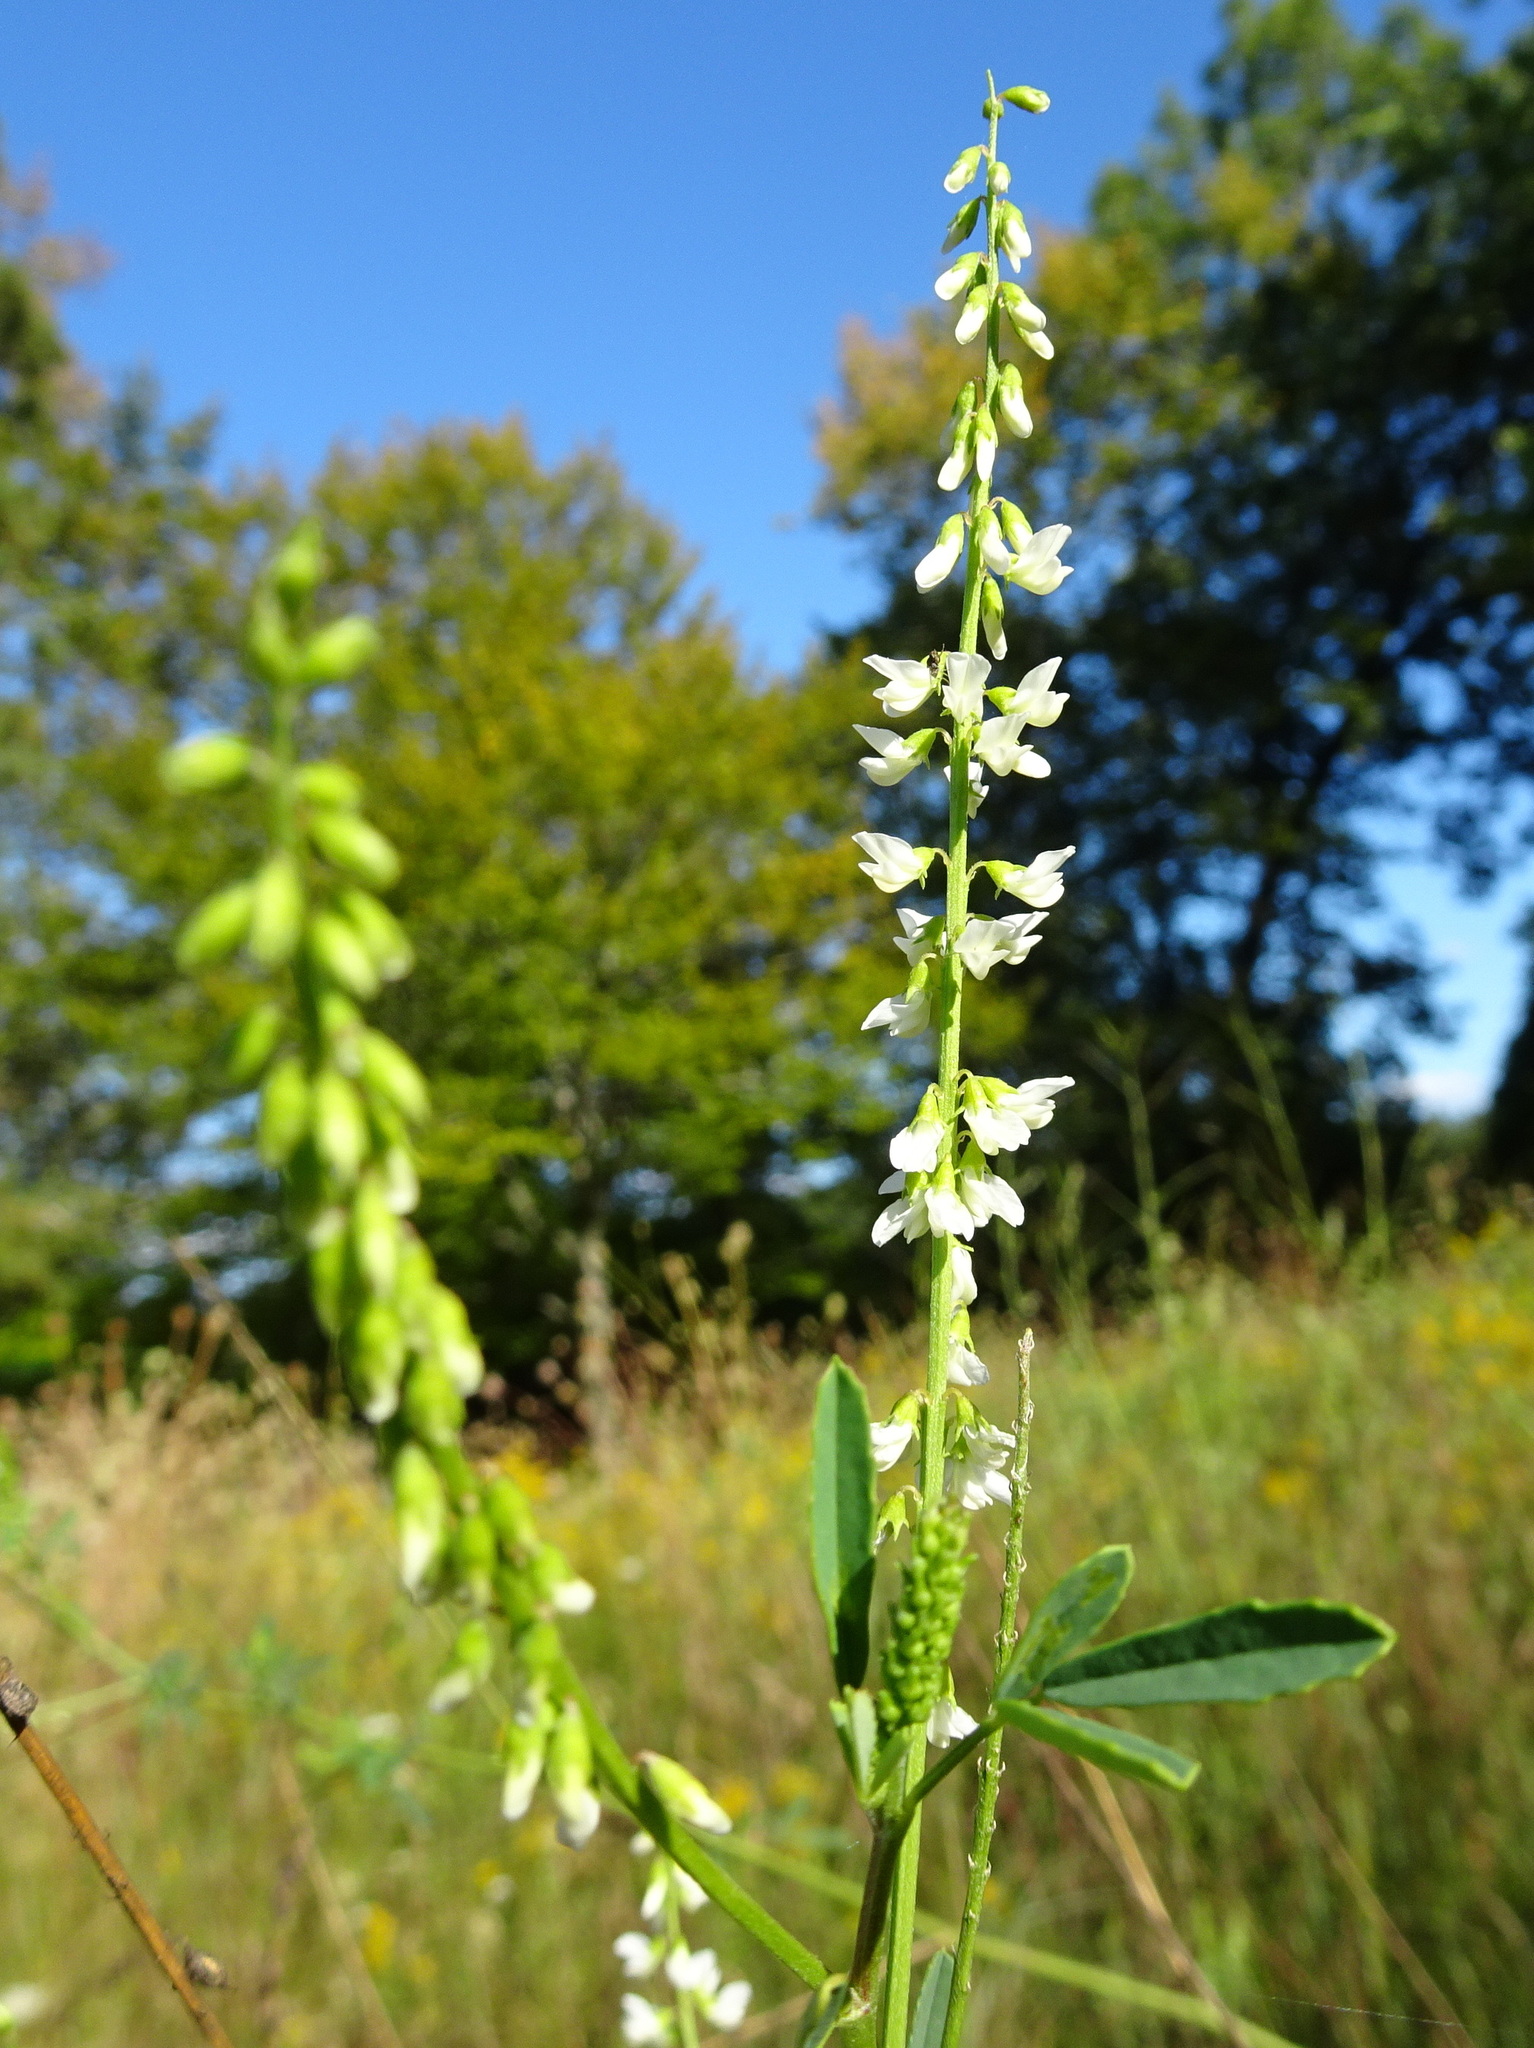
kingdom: Plantae
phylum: Tracheophyta
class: Magnoliopsida
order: Fabales
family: Fabaceae
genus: Melilotus
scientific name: Melilotus albus
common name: White melilot
